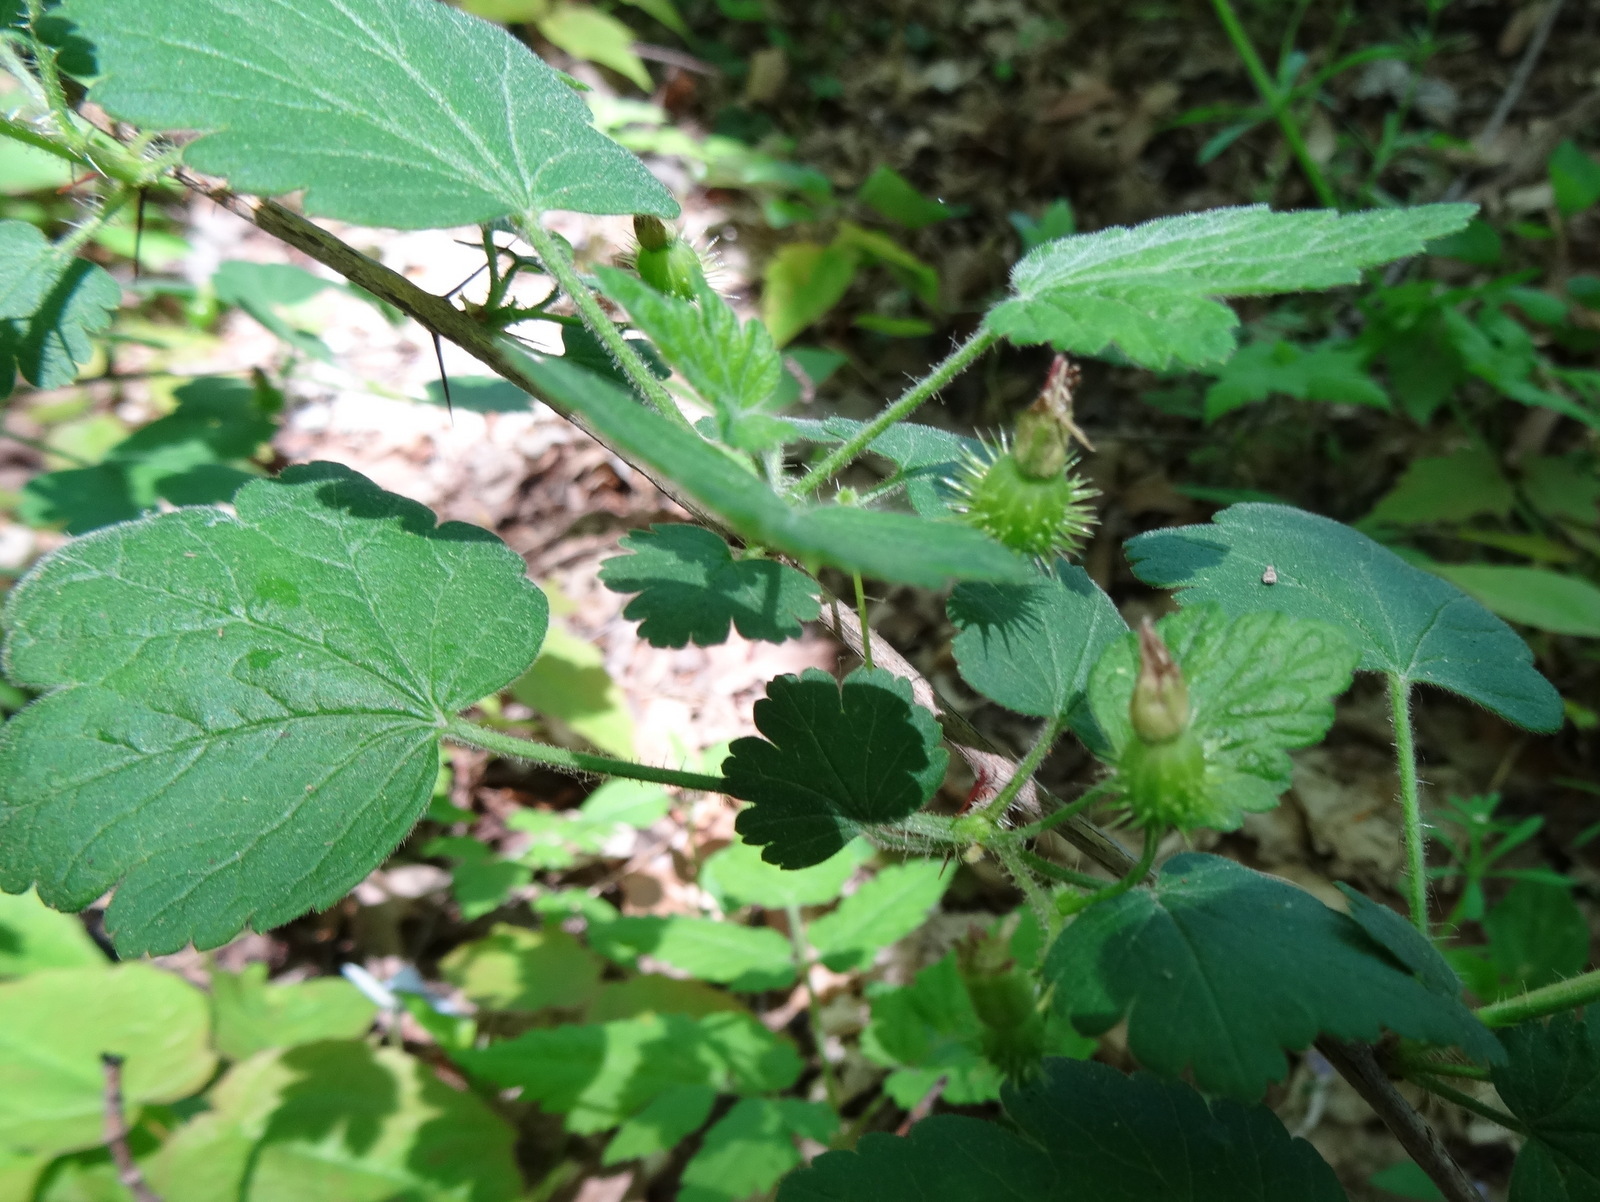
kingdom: Plantae
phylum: Tracheophyta
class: Magnoliopsida
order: Saxifragales
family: Grossulariaceae
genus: Ribes
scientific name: Ribes cynosbati
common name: American gooseberry
